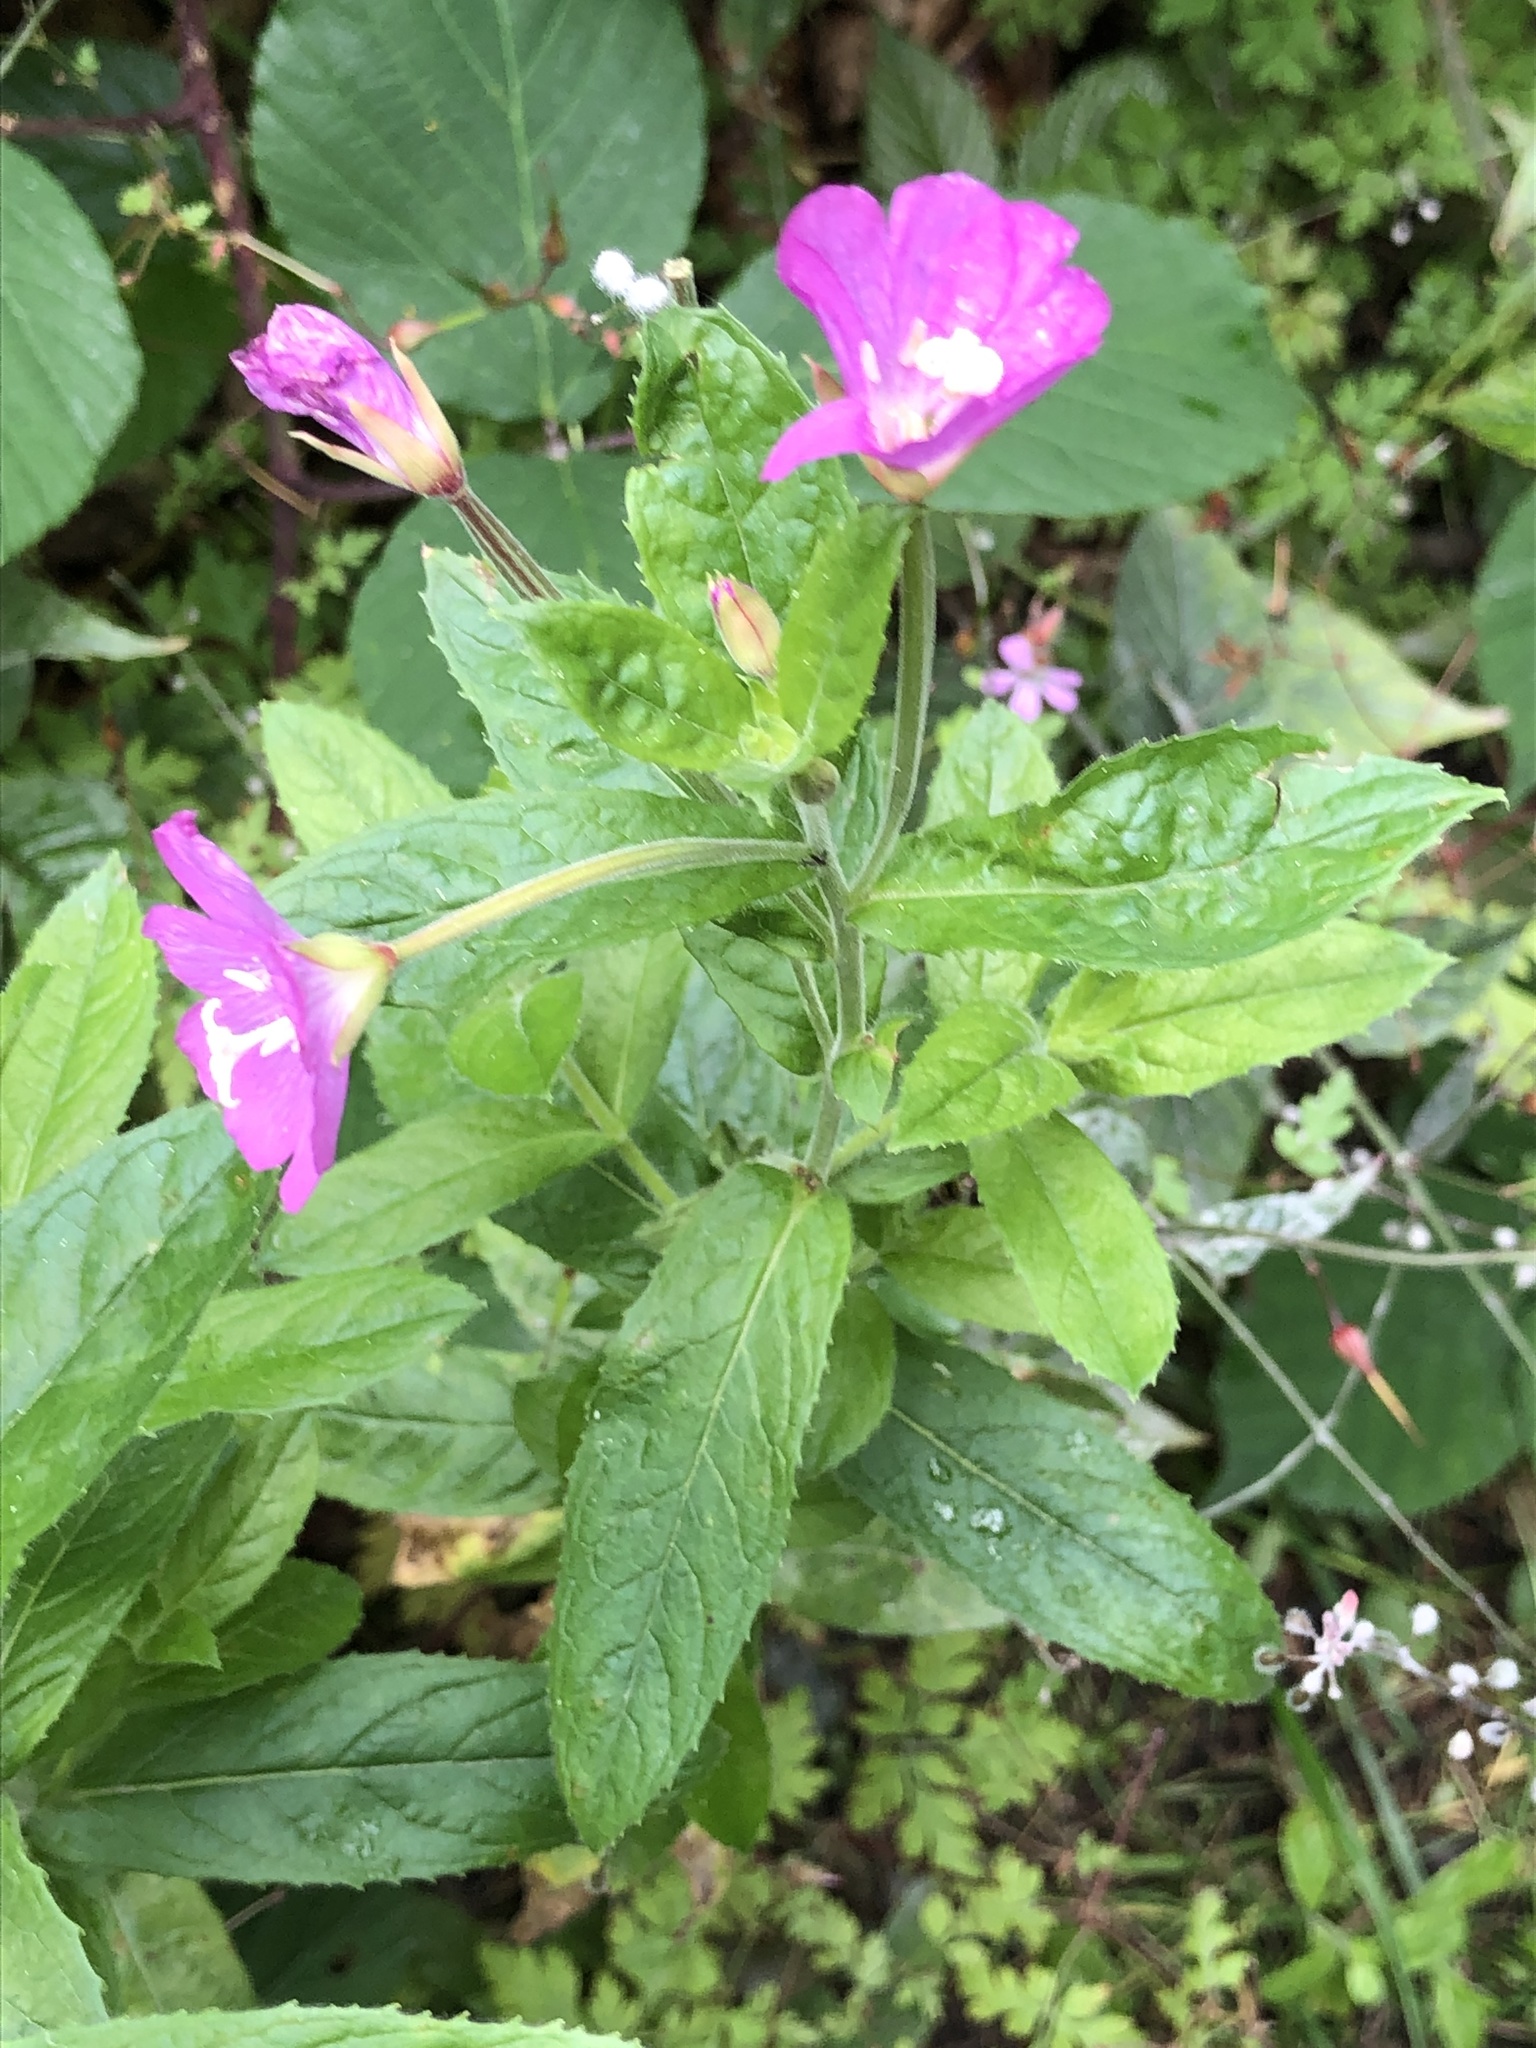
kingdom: Plantae
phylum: Tracheophyta
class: Magnoliopsida
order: Myrtales
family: Onagraceae
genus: Epilobium
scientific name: Epilobium hirsutum
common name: Great willowherb
